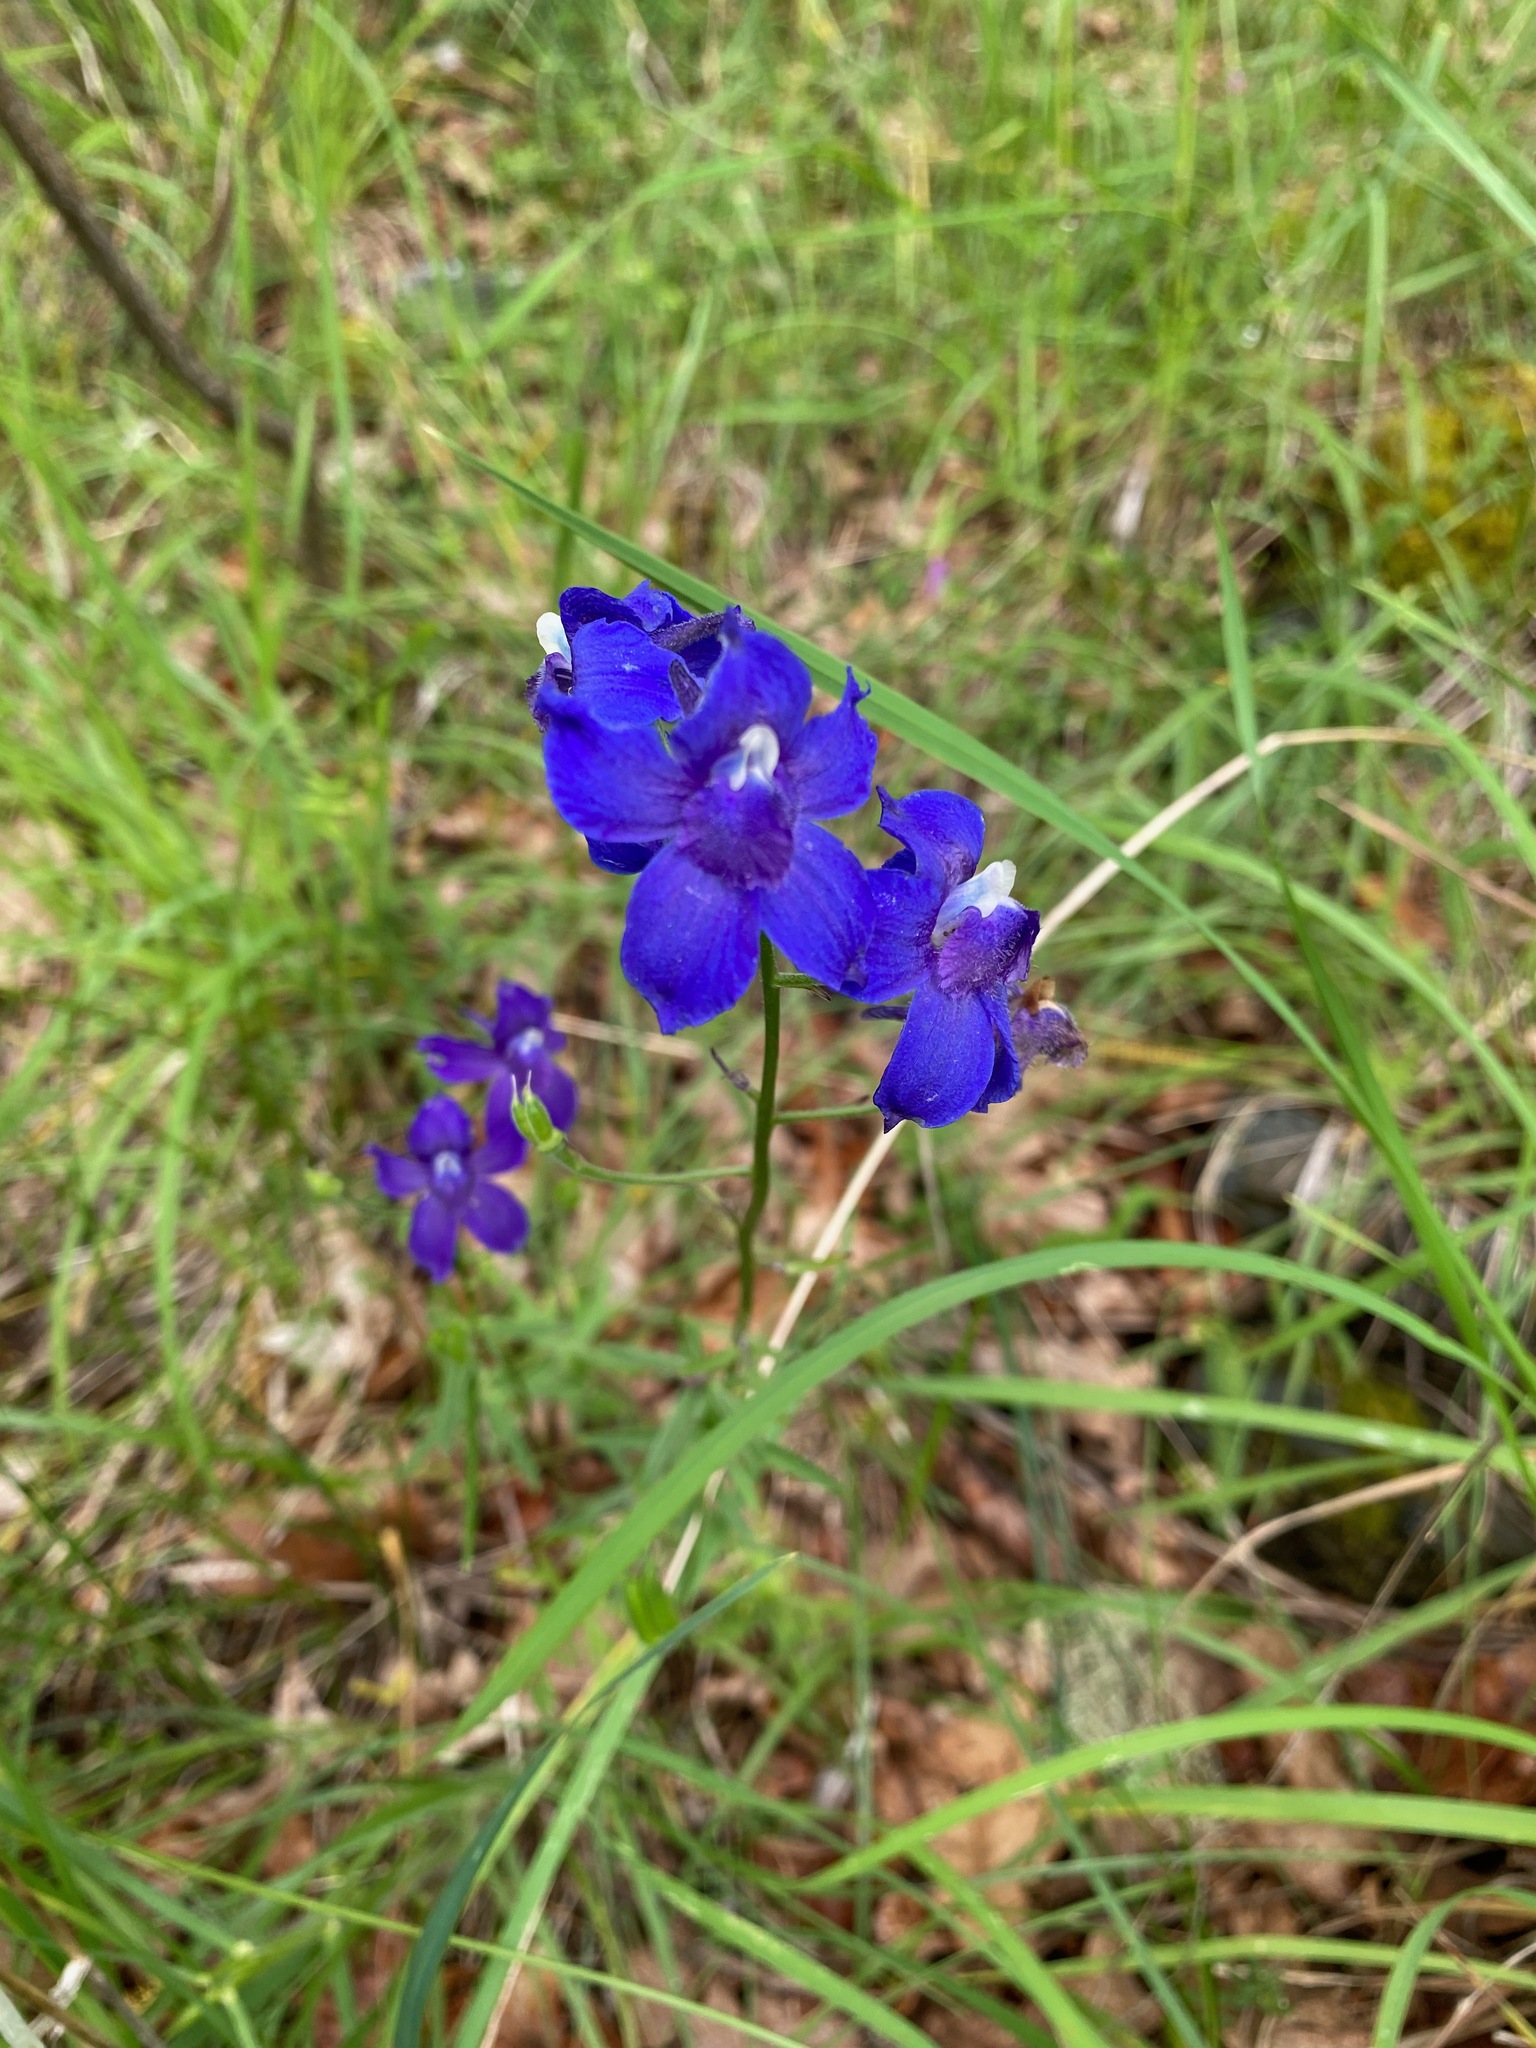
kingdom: Plantae
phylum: Tracheophyta
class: Magnoliopsida
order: Ranunculales
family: Ranunculaceae
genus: Delphinium
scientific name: Delphinium menziesii
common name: Menzies's larkspur
